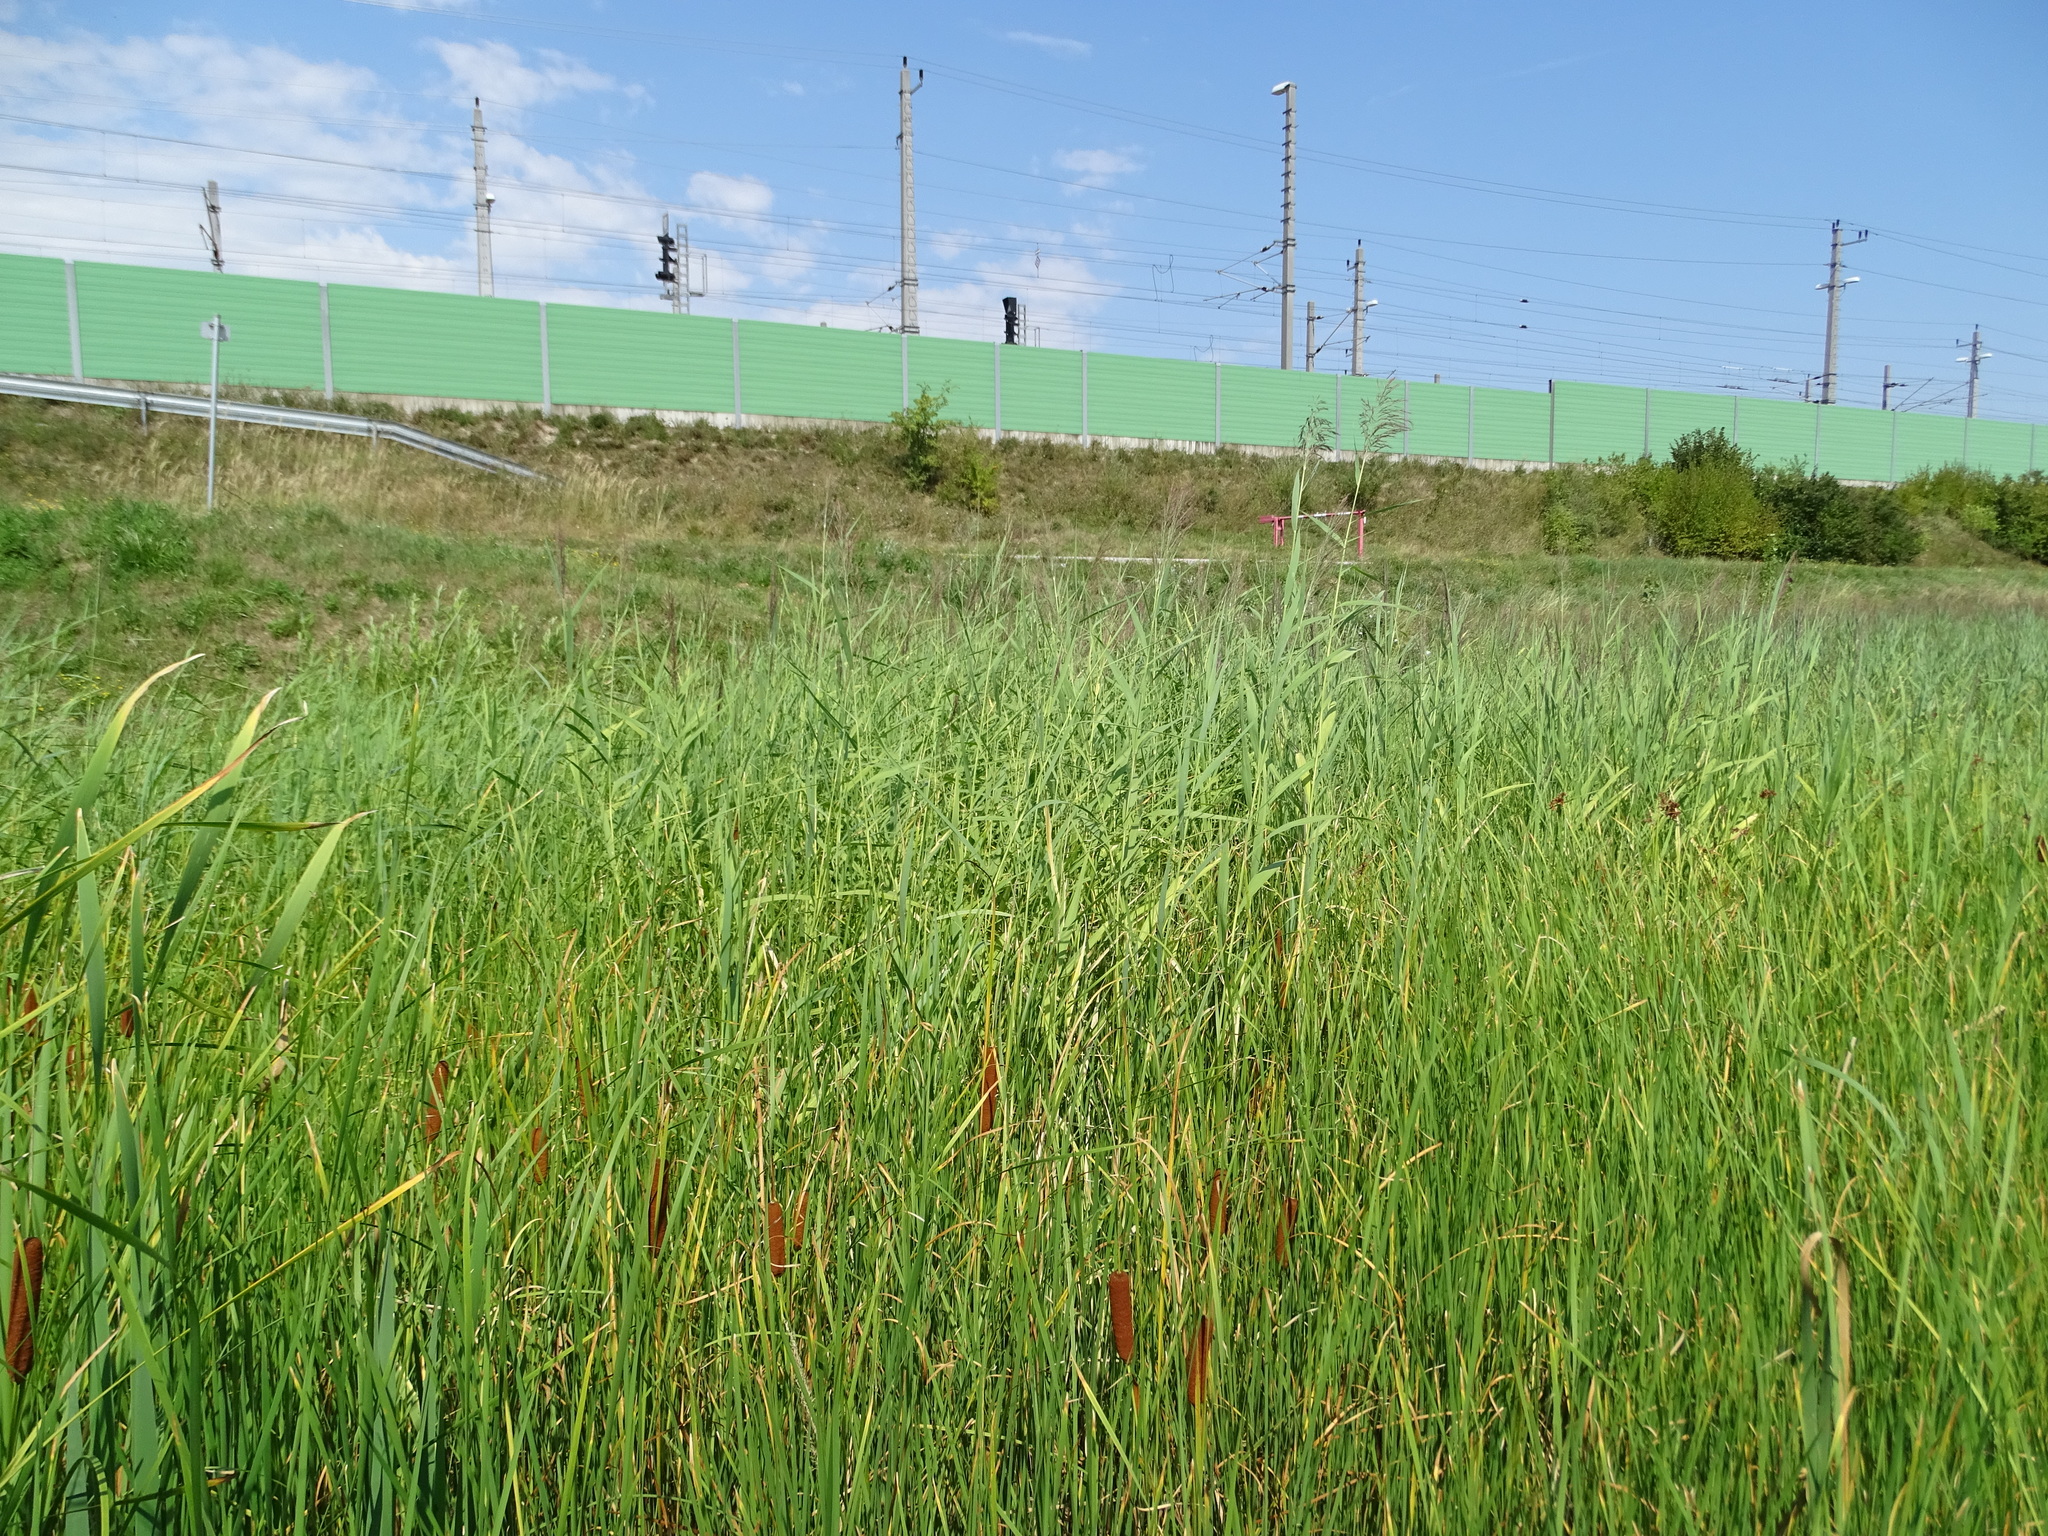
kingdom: Plantae
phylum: Tracheophyta
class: Liliopsida
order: Poales
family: Poaceae
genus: Phragmites
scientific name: Phragmites australis
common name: Common reed
